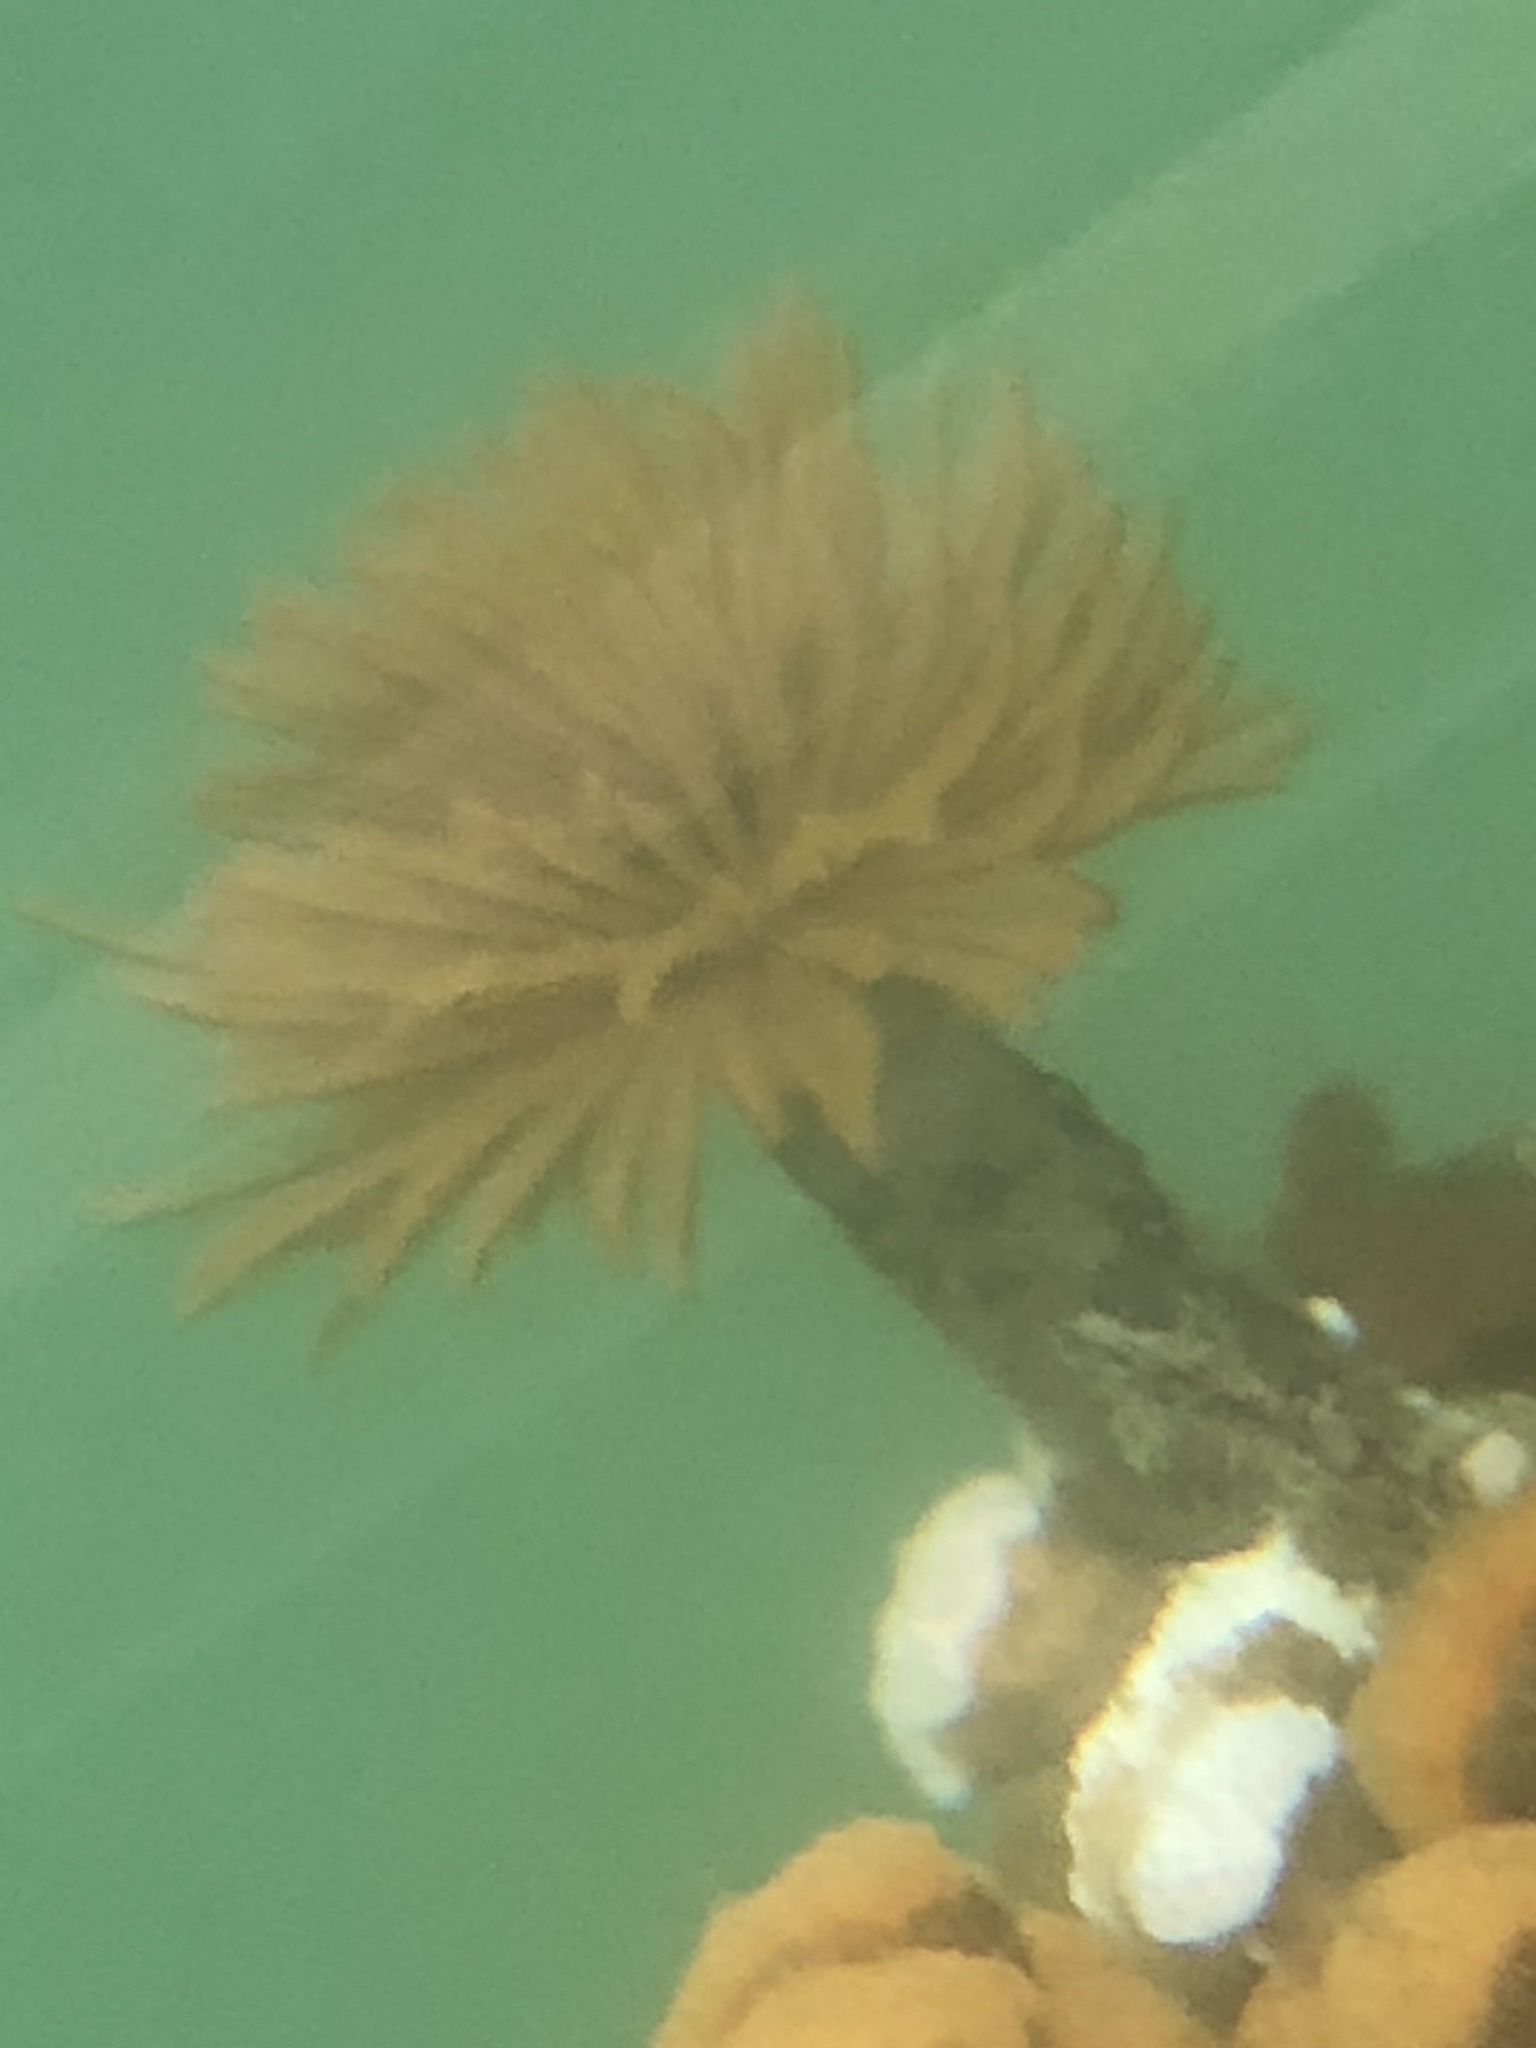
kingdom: Animalia
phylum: Annelida
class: Polychaeta
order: Sabellida
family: Sabellidae
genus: Eudistylia
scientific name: Eudistylia polymorpha
